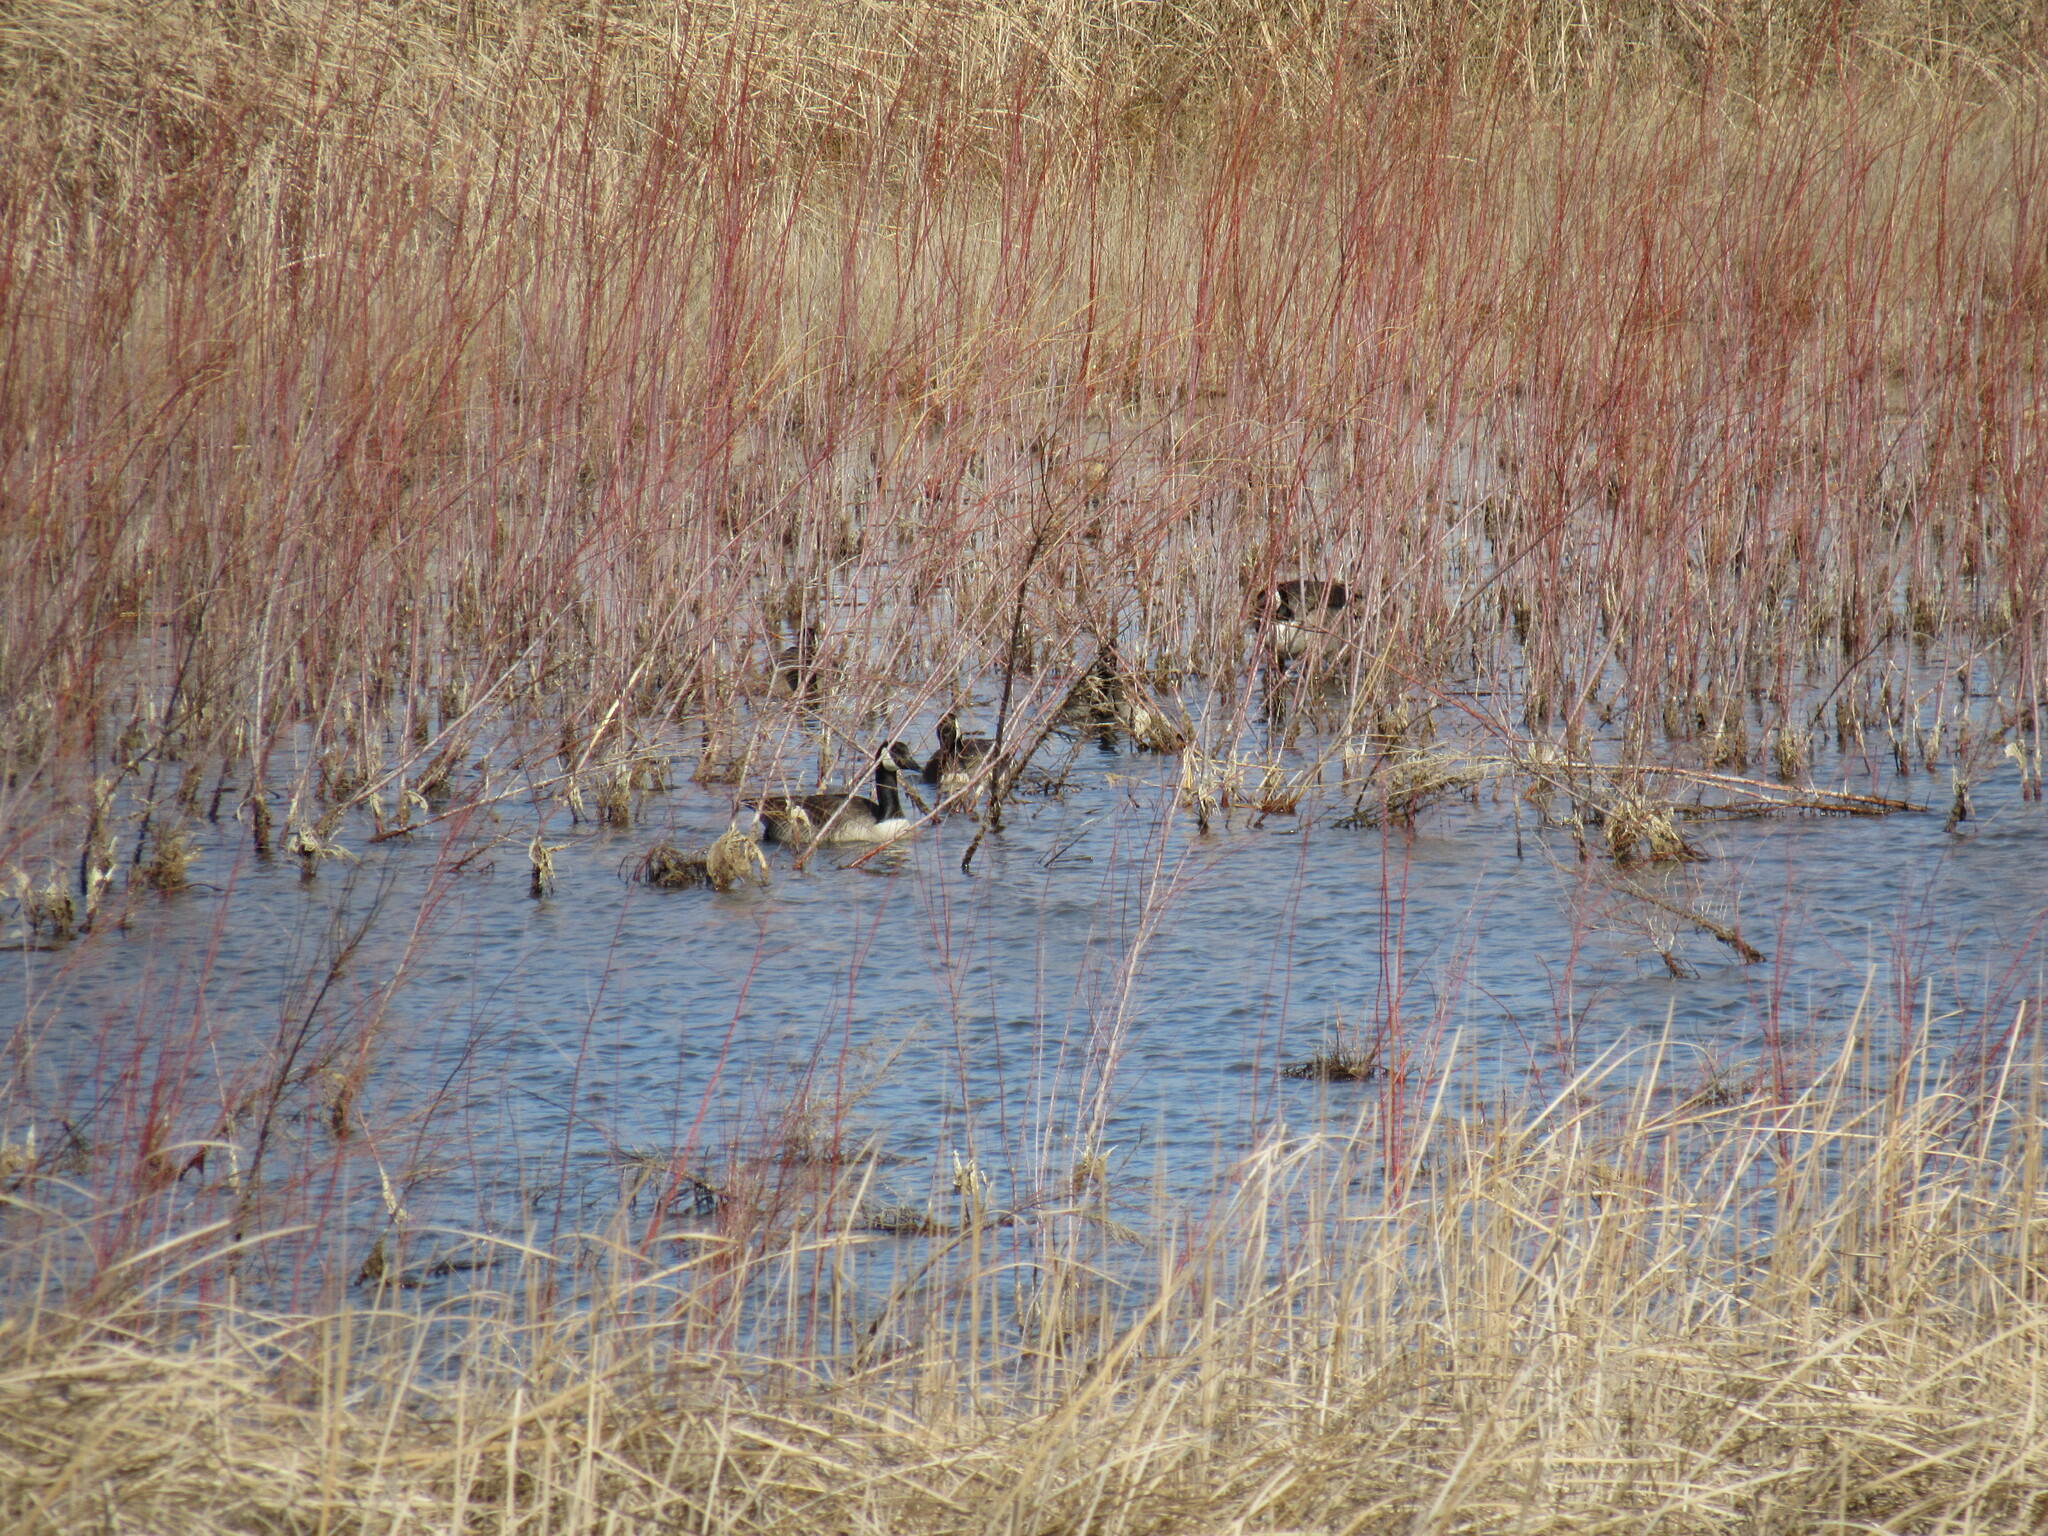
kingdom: Animalia
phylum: Chordata
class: Aves
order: Anseriformes
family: Anatidae
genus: Branta
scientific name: Branta canadensis
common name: Canada goose
